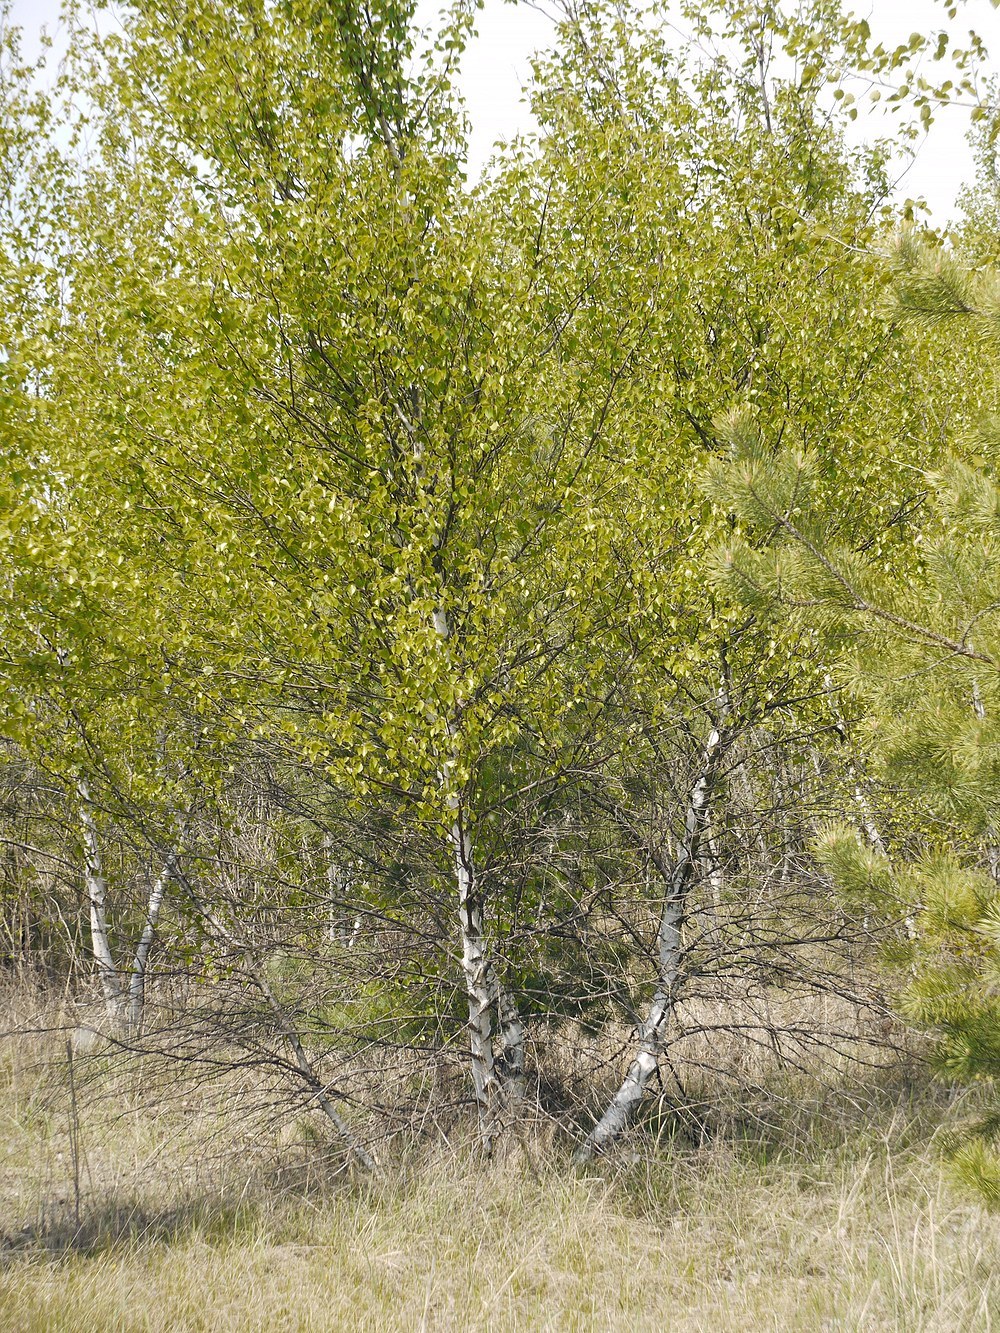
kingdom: Plantae
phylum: Tracheophyta
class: Magnoliopsida
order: Fagales
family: Betulaceae
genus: Betula
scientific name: Betula pubescens
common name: Downy birch
